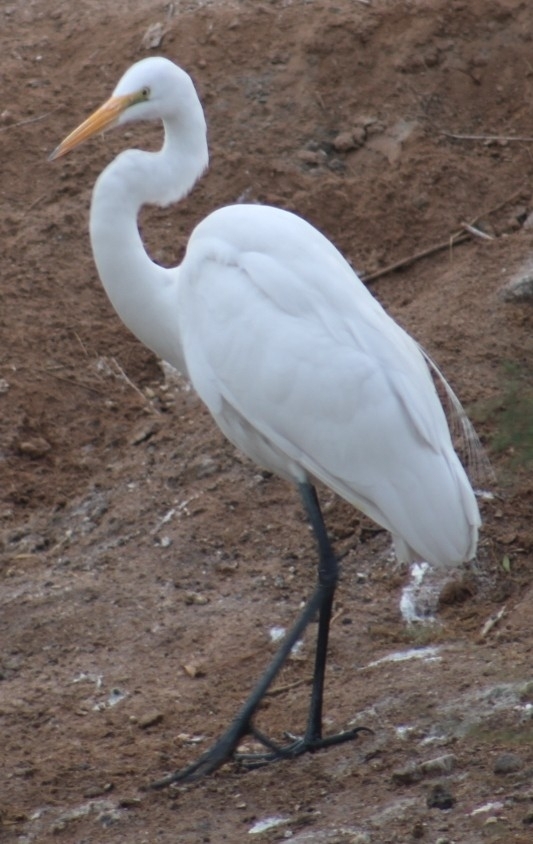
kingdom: Animalia
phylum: Chordata
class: Aves
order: Pelecaniformes
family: Ardeidae
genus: Ardea
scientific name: Ardea alba
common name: Great egret
